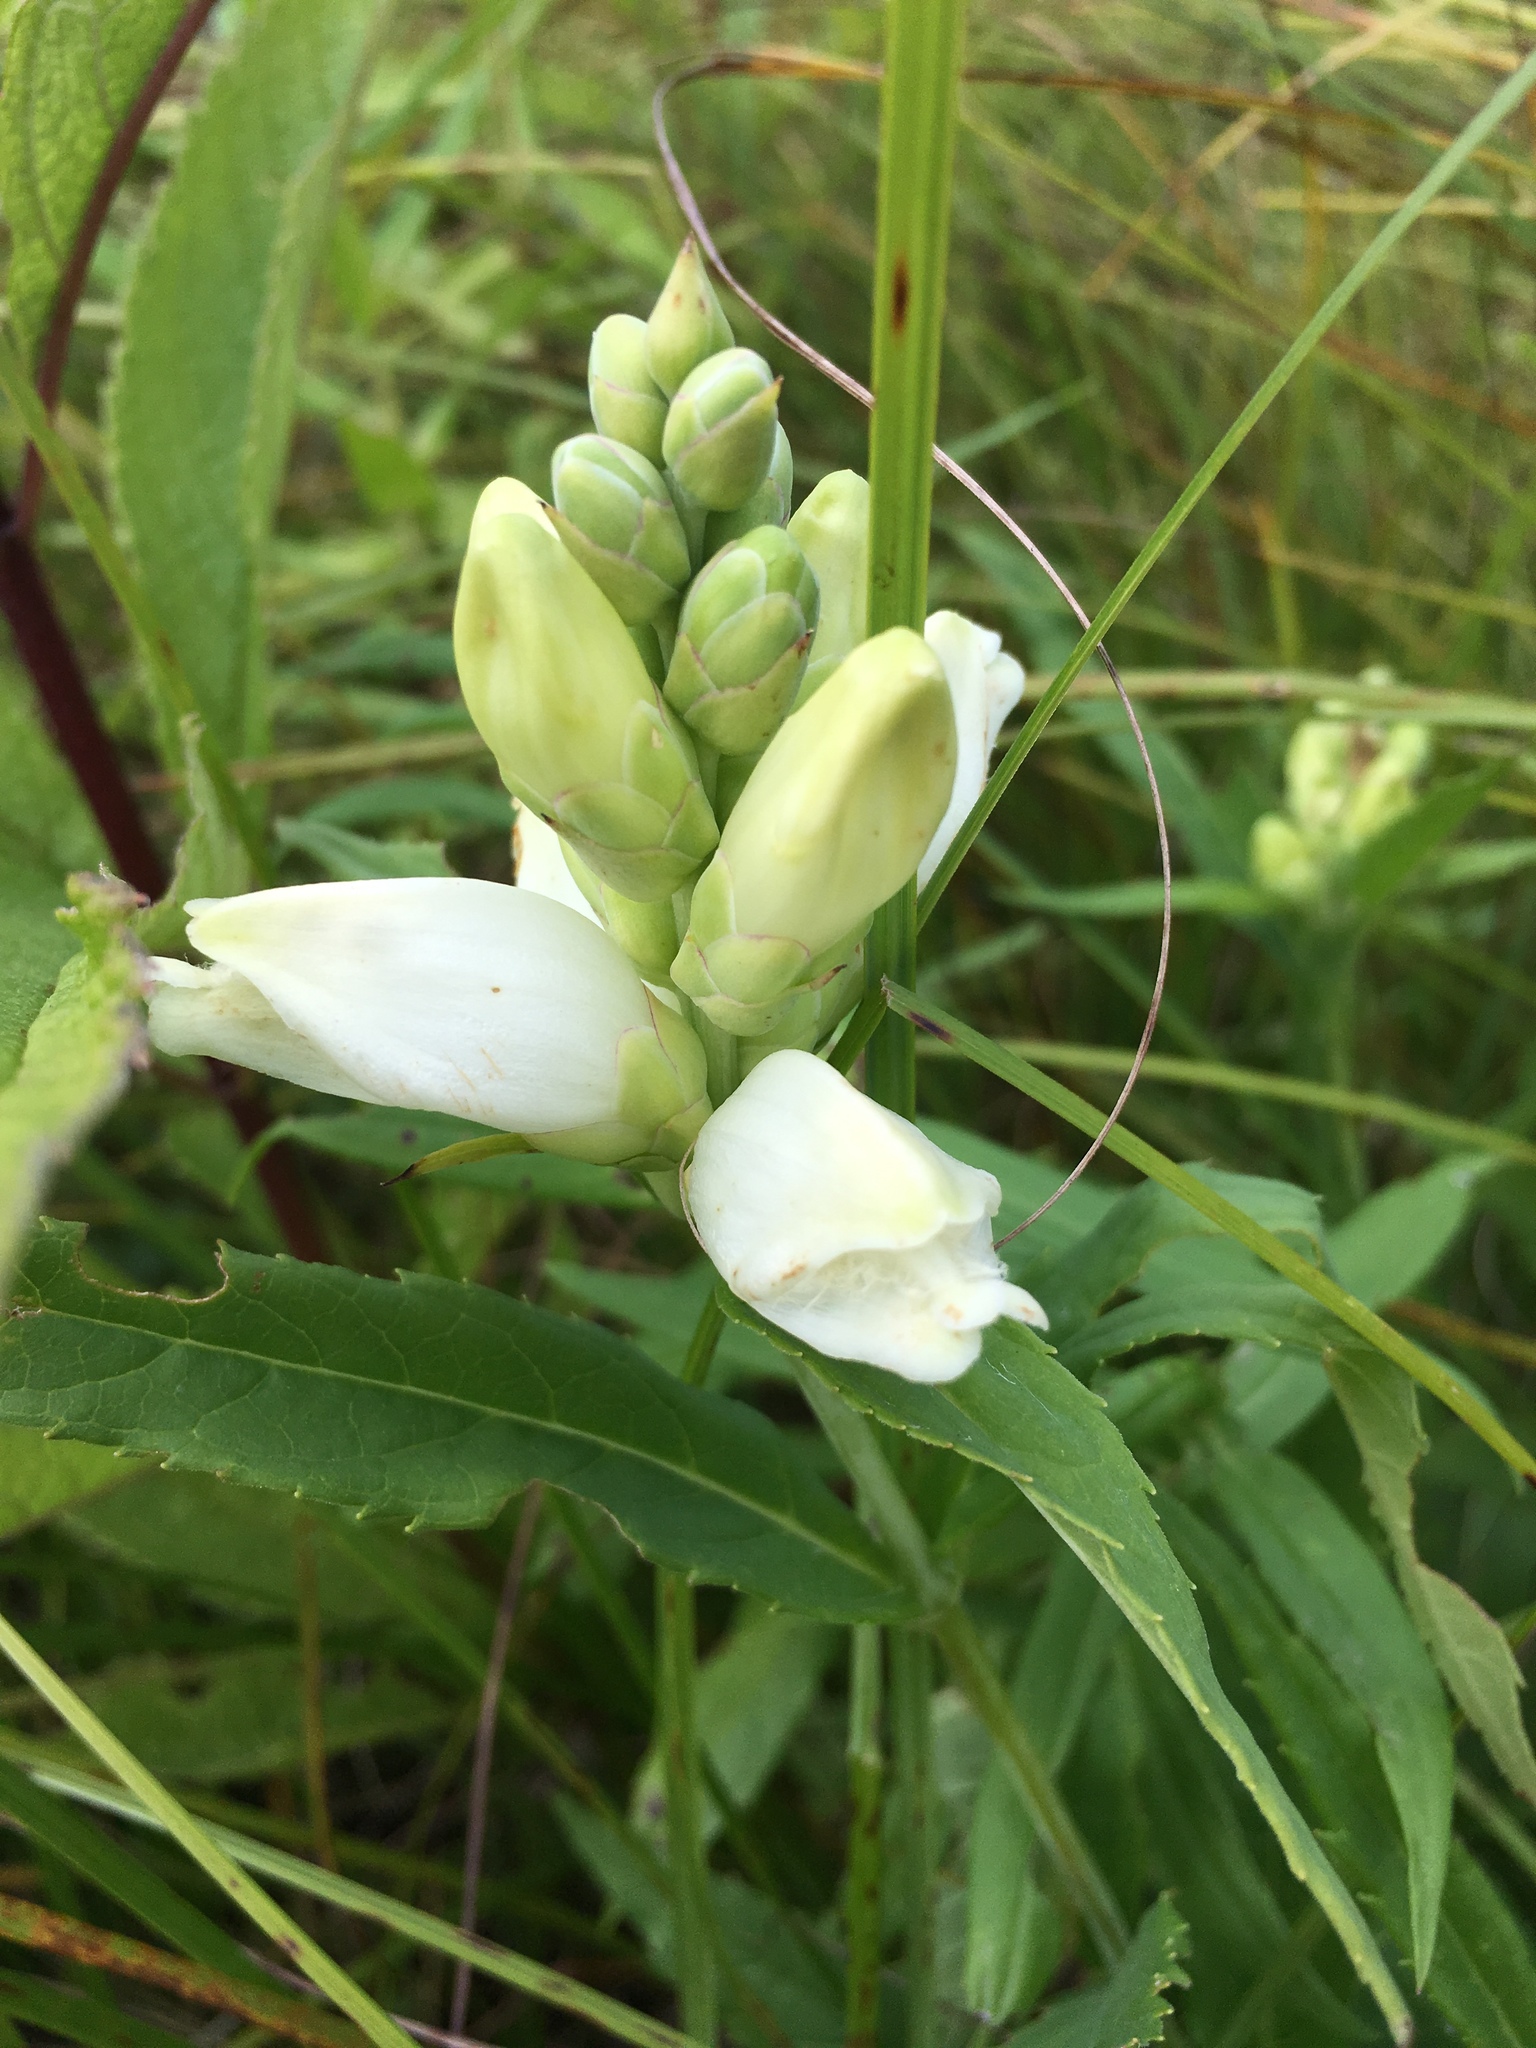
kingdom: Plantae
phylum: Tracheophyta
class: Magnoliopsida
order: Lamiales
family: Plantaginaceae
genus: Chelone
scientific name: Chelone glabra
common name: Snakehead
